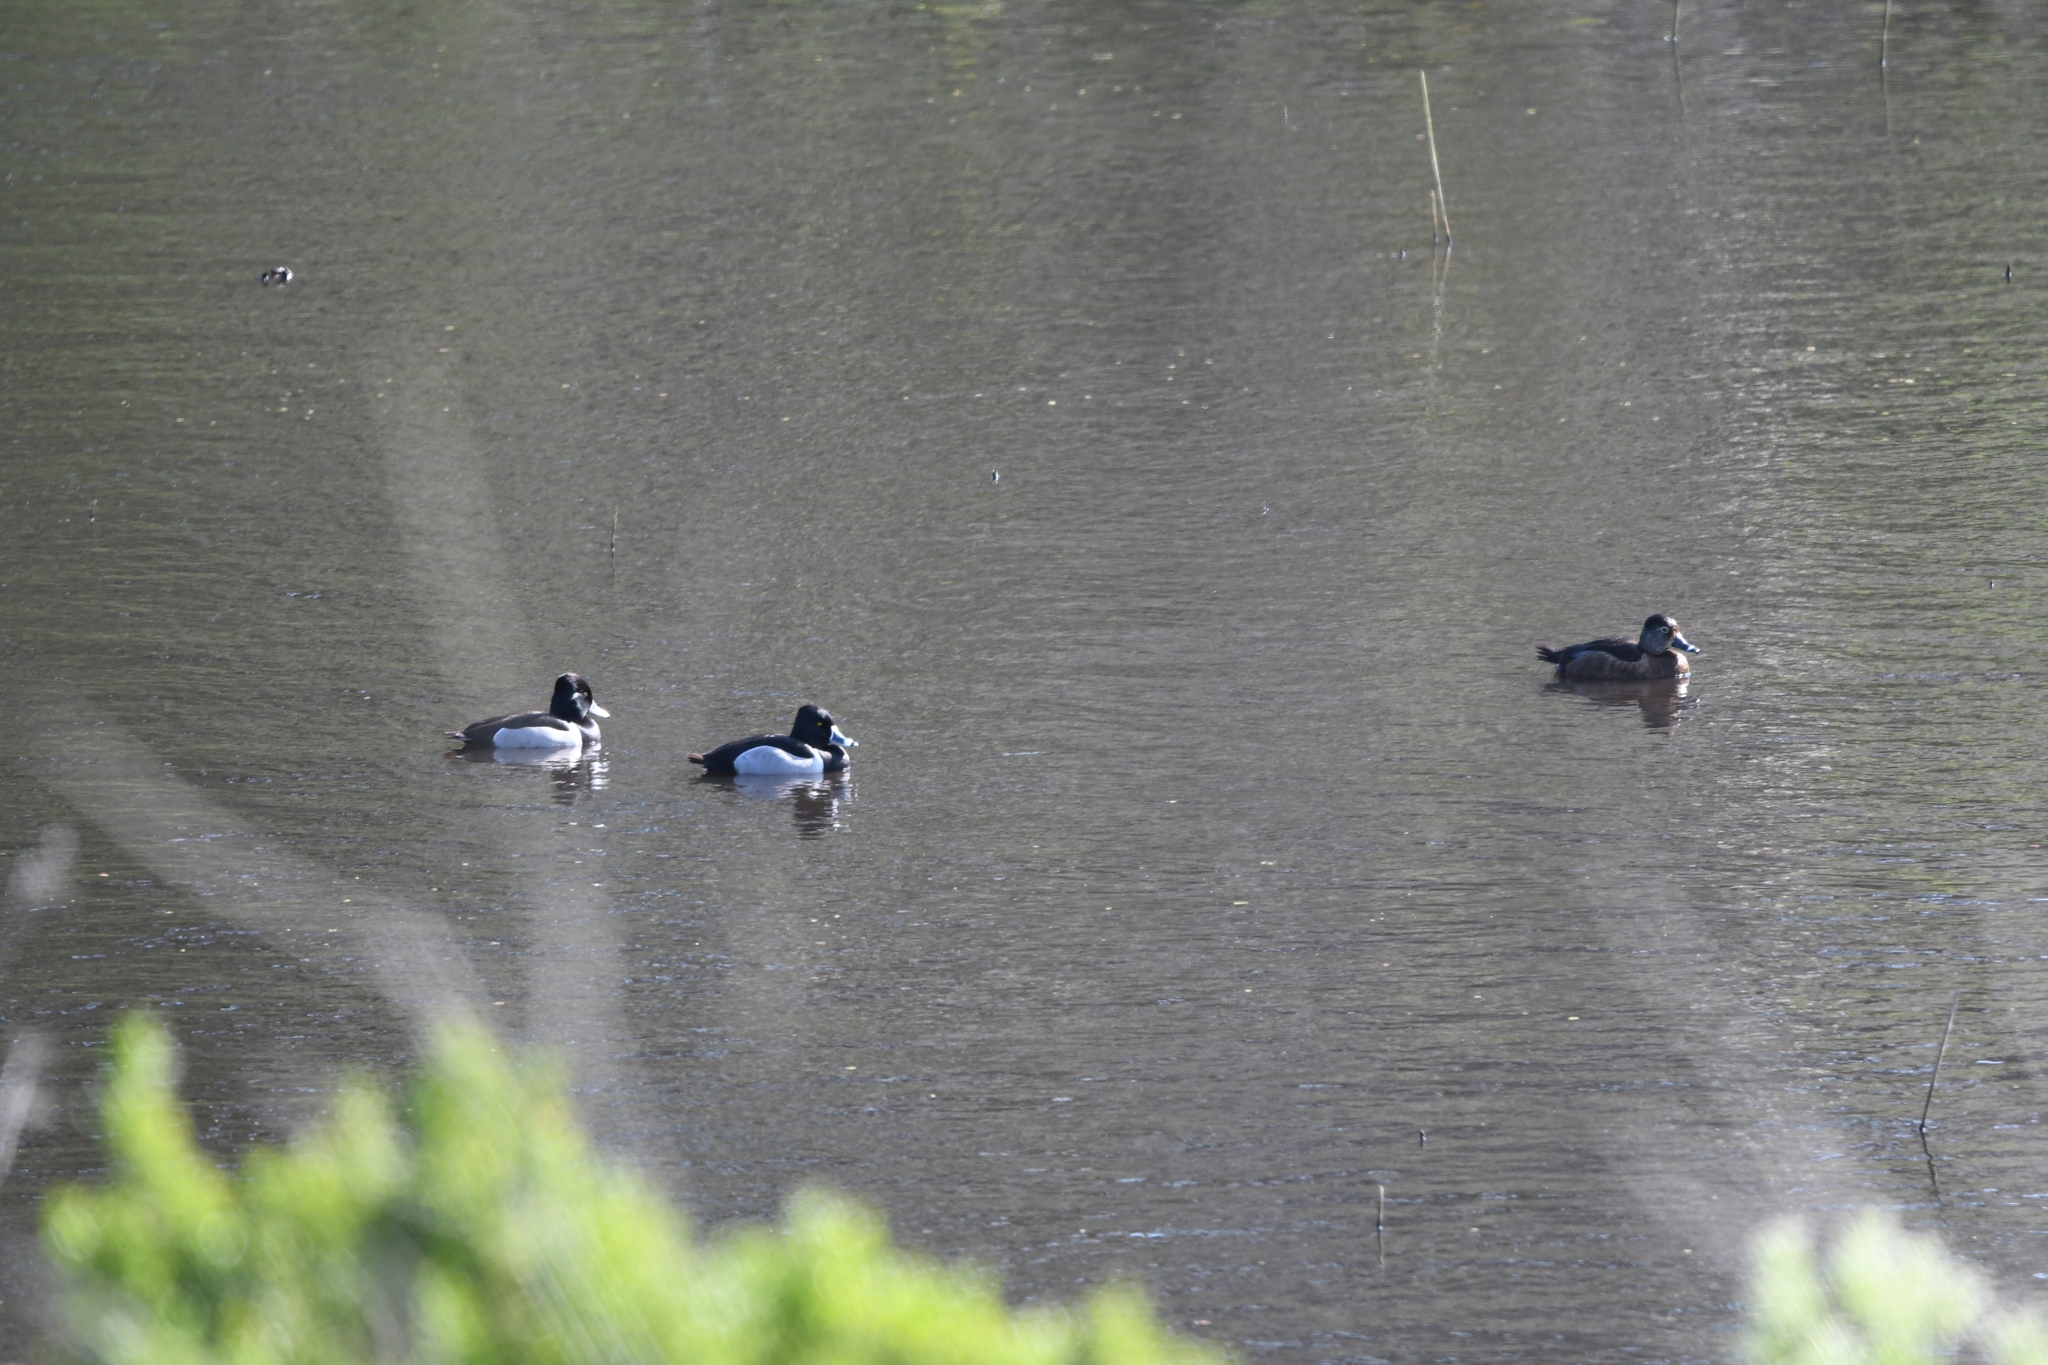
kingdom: Animalia
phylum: Chordata
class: Aves
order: Anseriformes
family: Anatidae
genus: Aythya
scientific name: Aythya collaris
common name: Ring-necked duck
